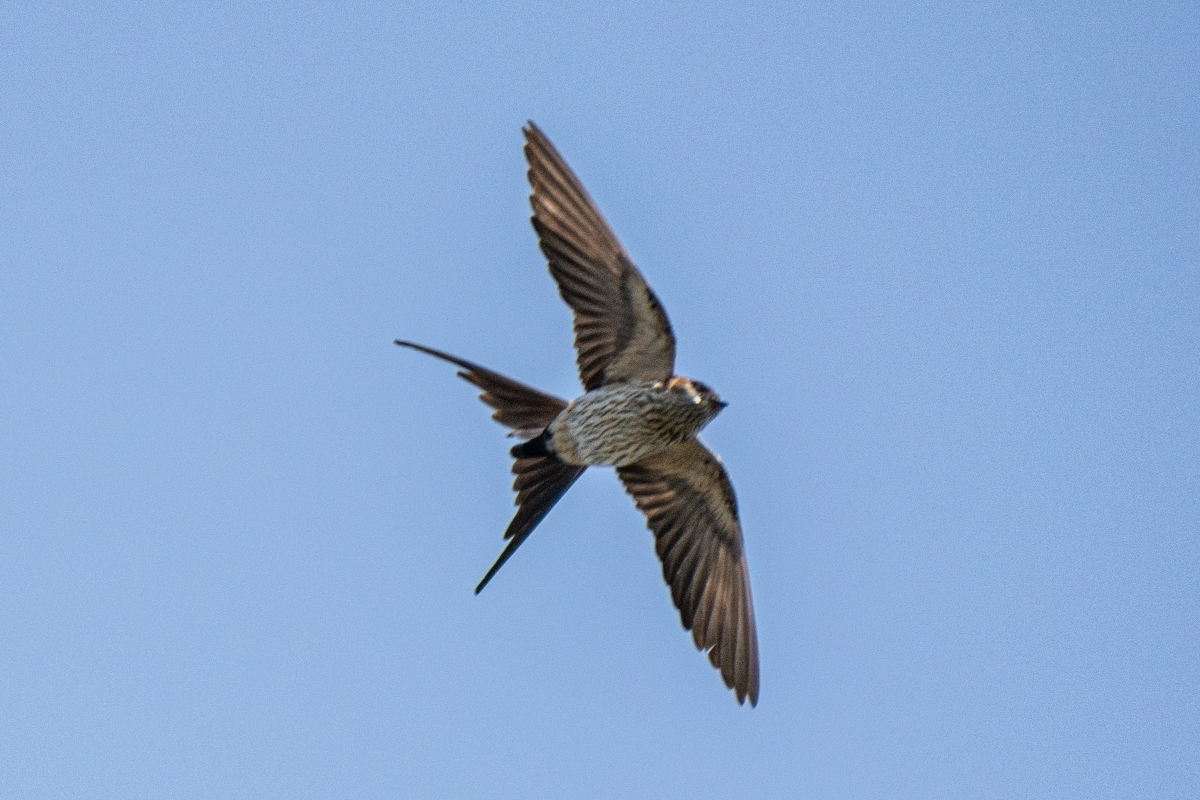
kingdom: Animalia
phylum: Chordata
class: Aves
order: Passeriformes
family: Hirundinidae
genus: Cecropis
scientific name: Cecropis daurica
